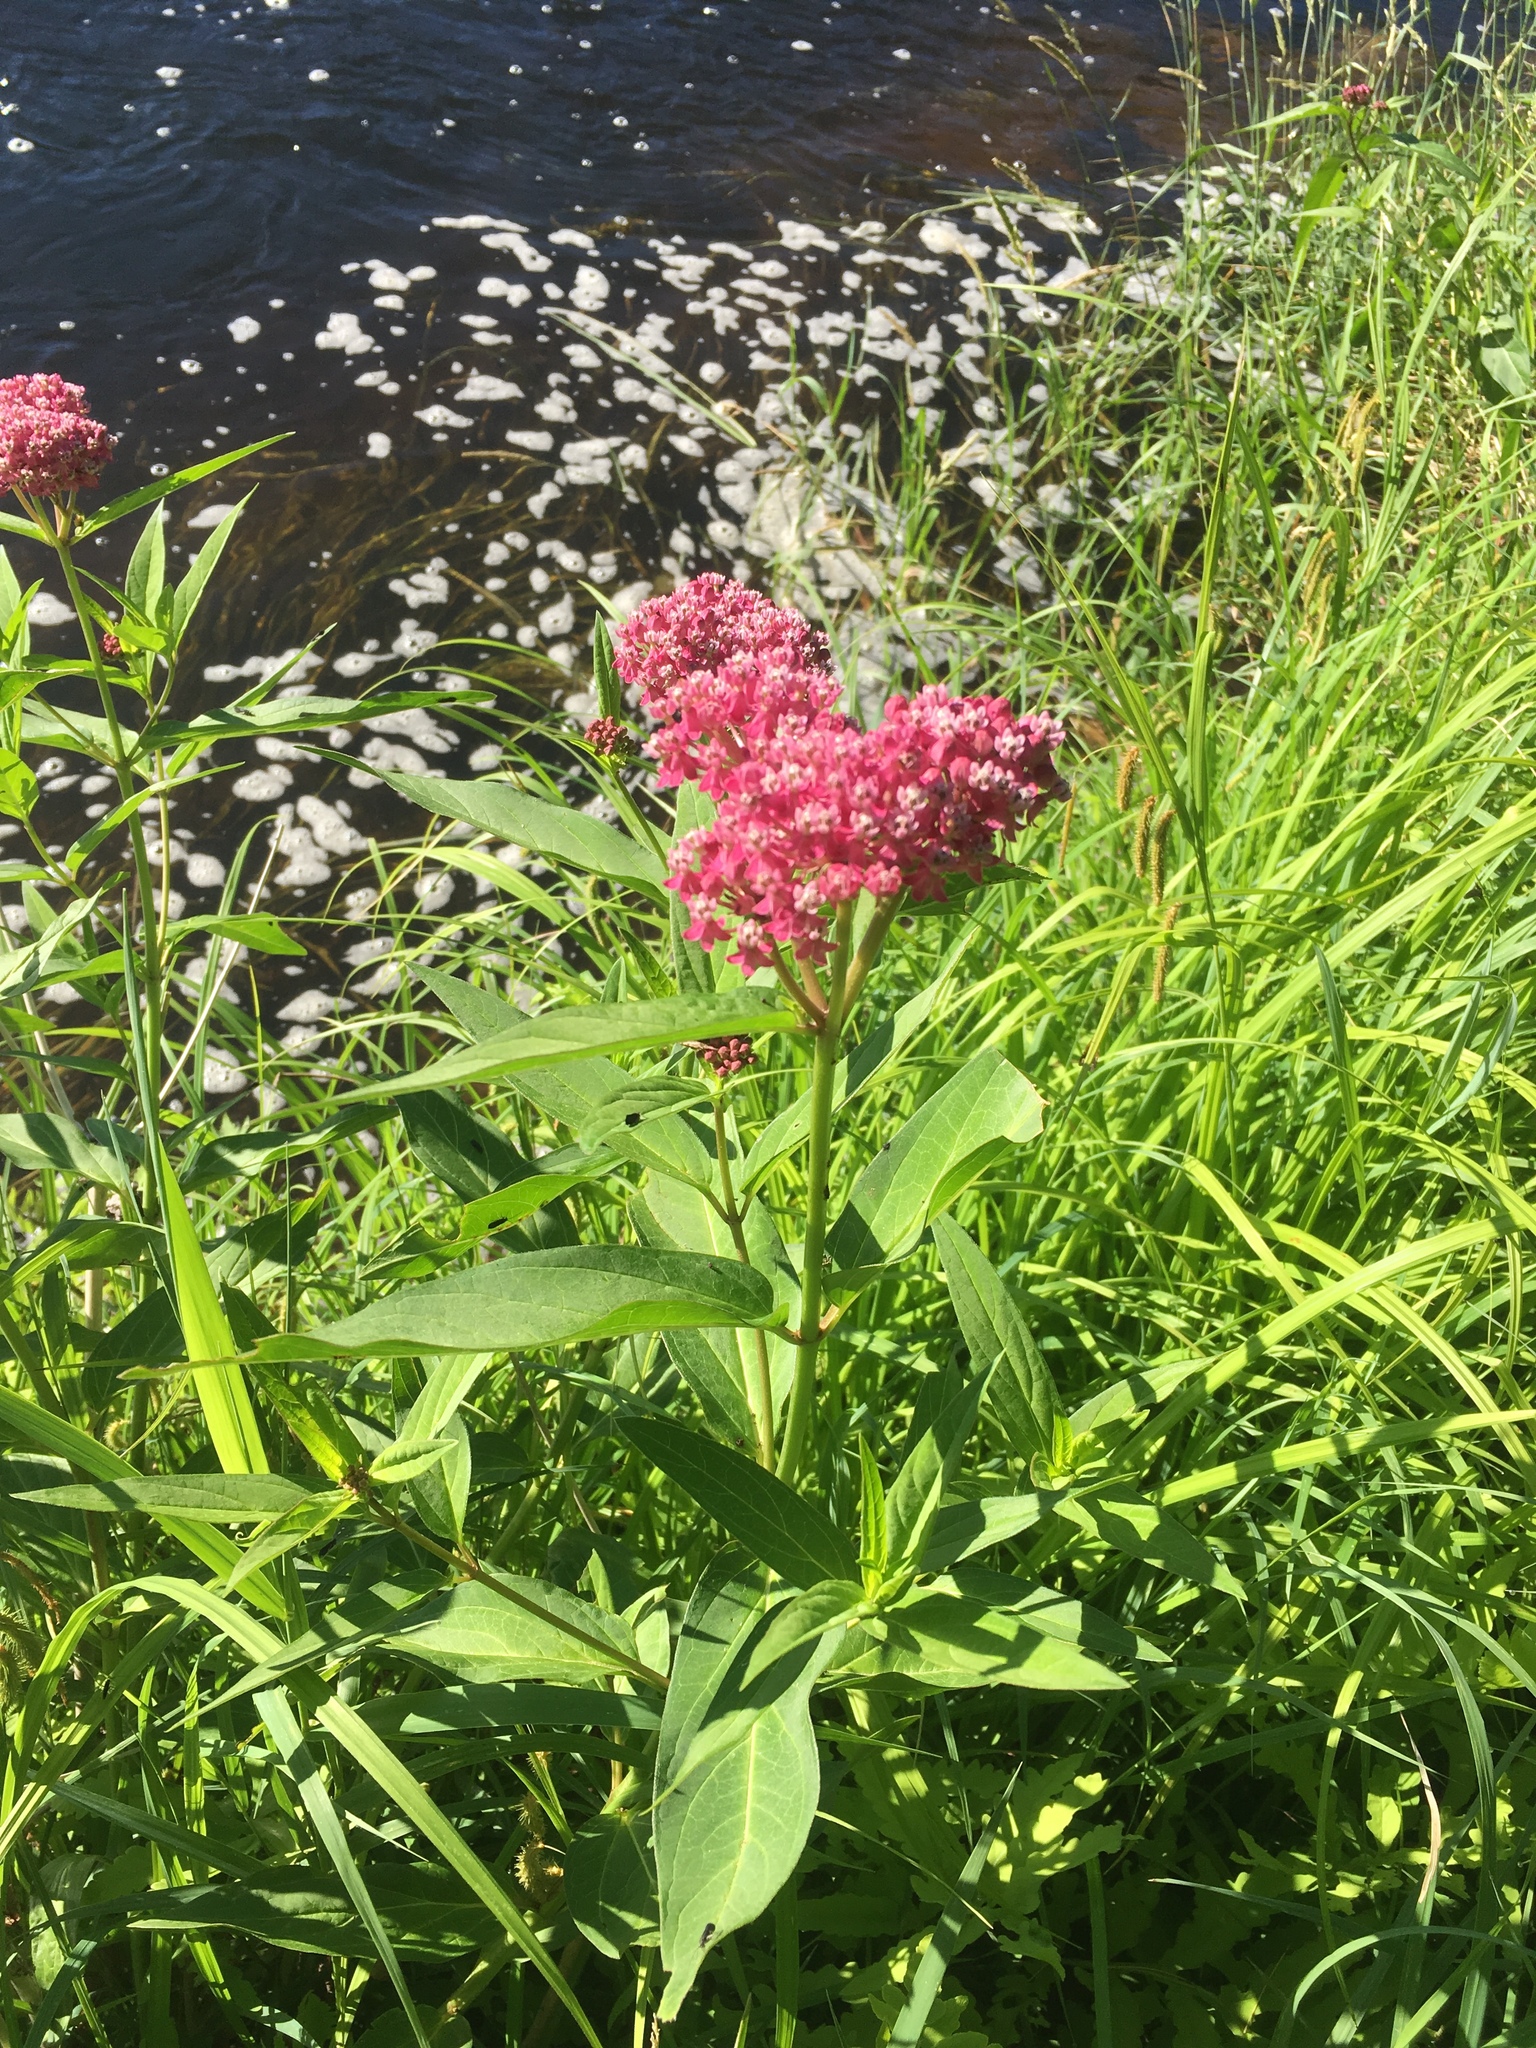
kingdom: Plantae
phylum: Tracheophyta
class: Magnoliopsida
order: Gentianales
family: Apocynaceae
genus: Asclepias
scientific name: Asclepias incarnata
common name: Swamp milkweed
